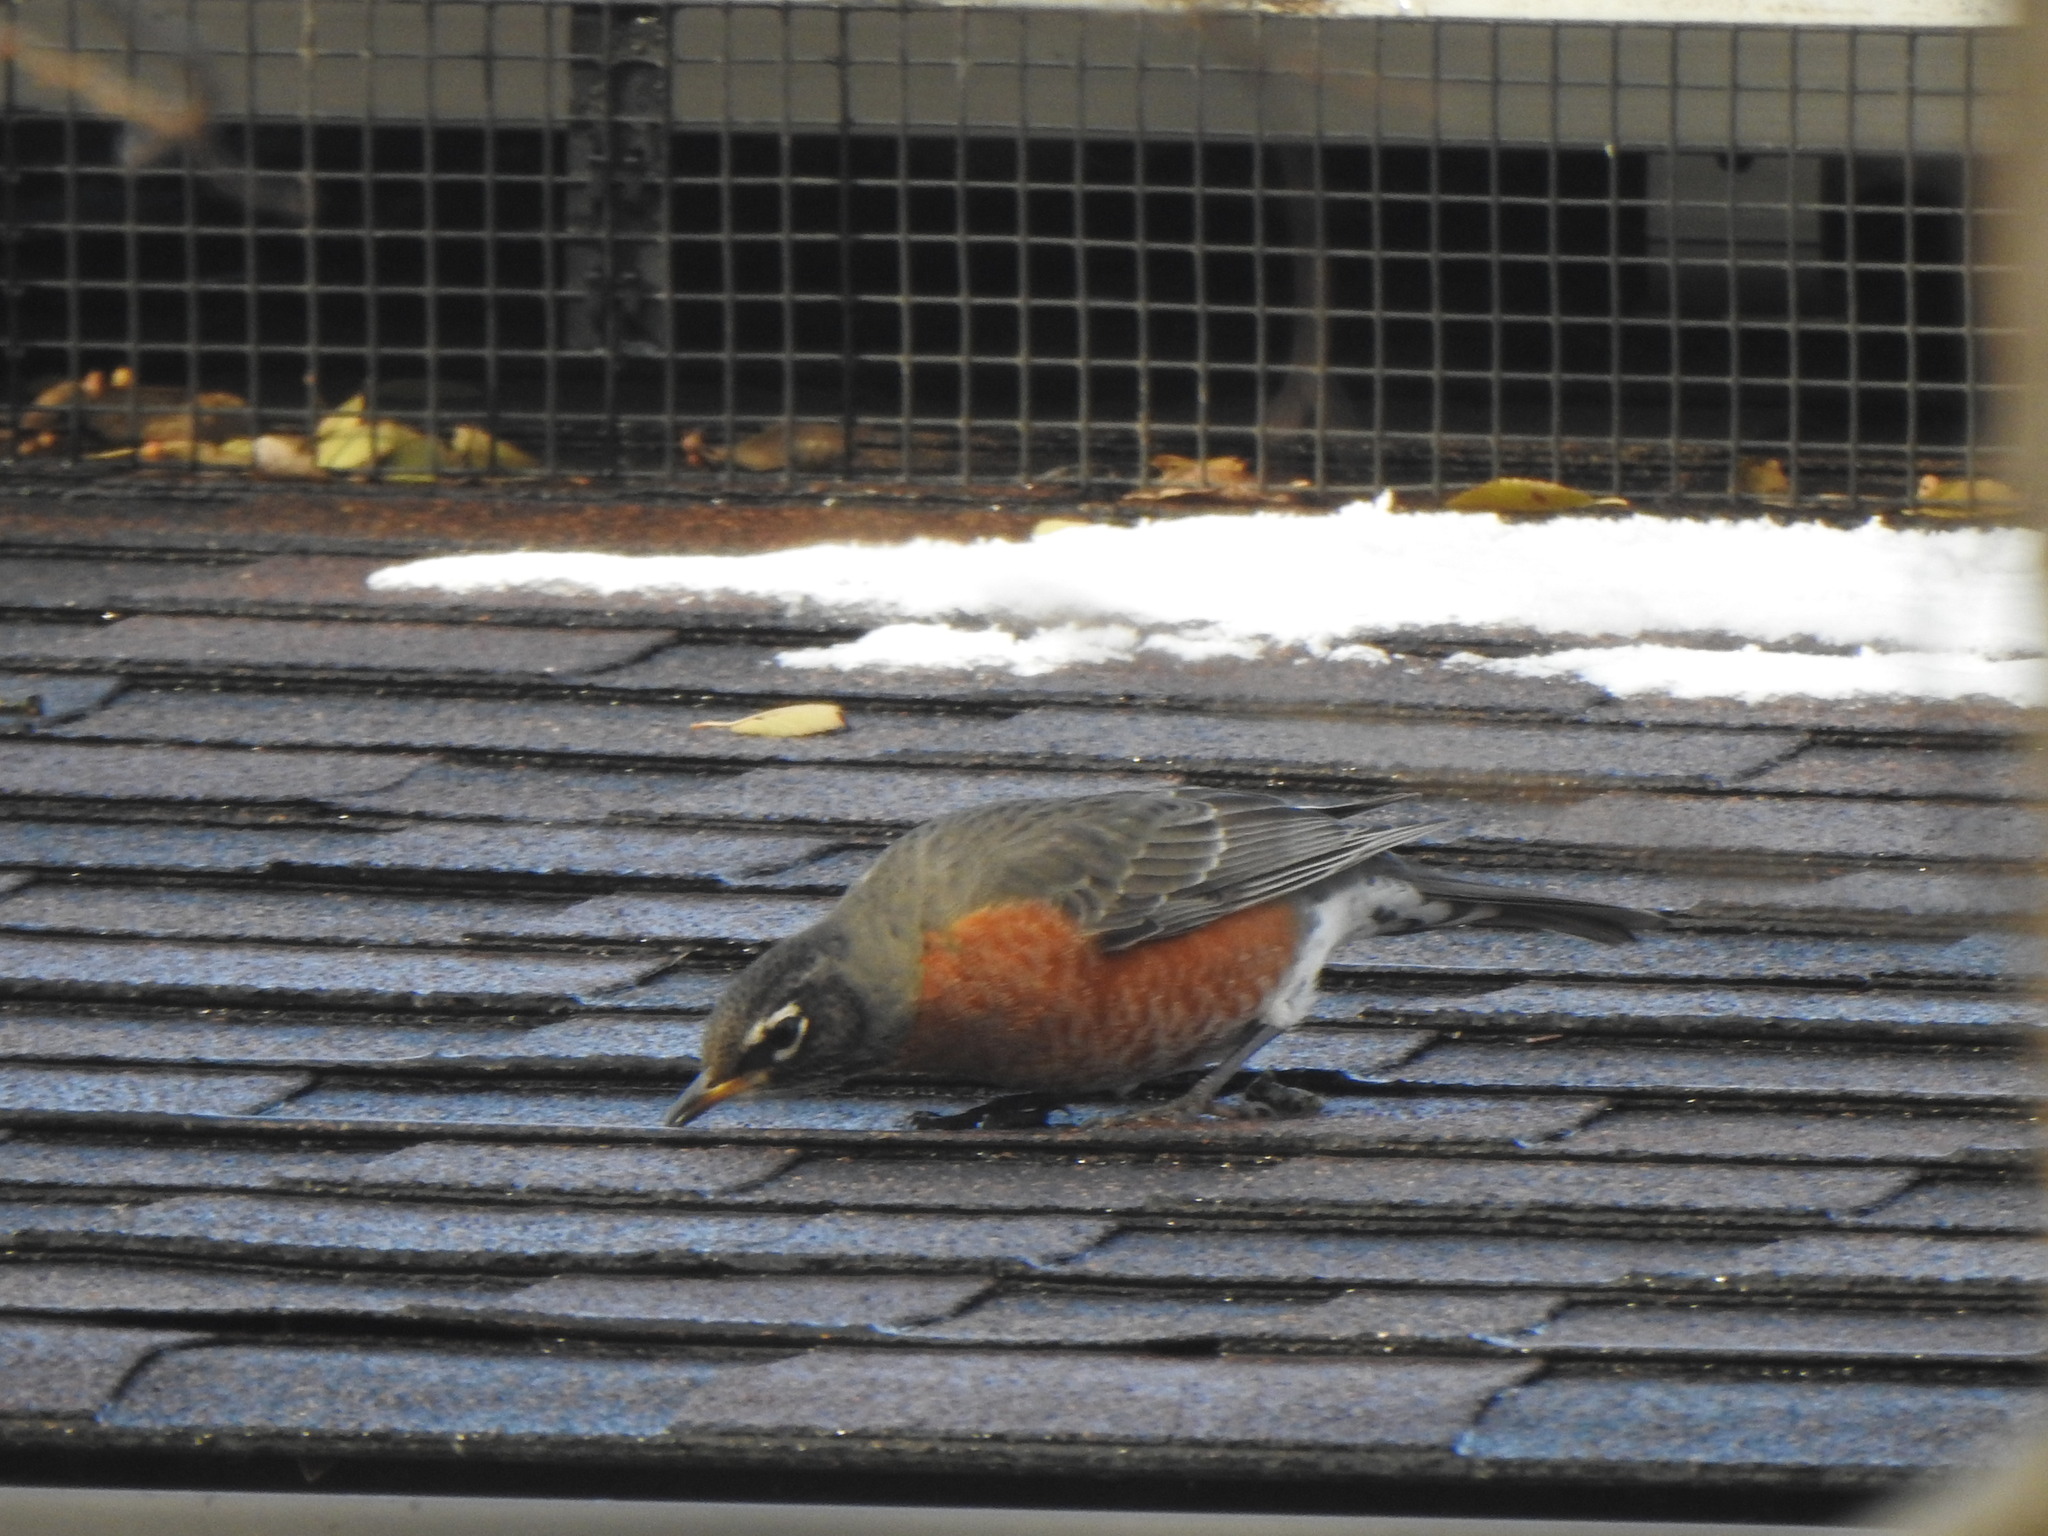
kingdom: Animalia
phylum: Chordata
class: Aves
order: Passeriformes
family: Turdidae
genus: Turdus
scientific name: Turdus migratorius
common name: American robin
